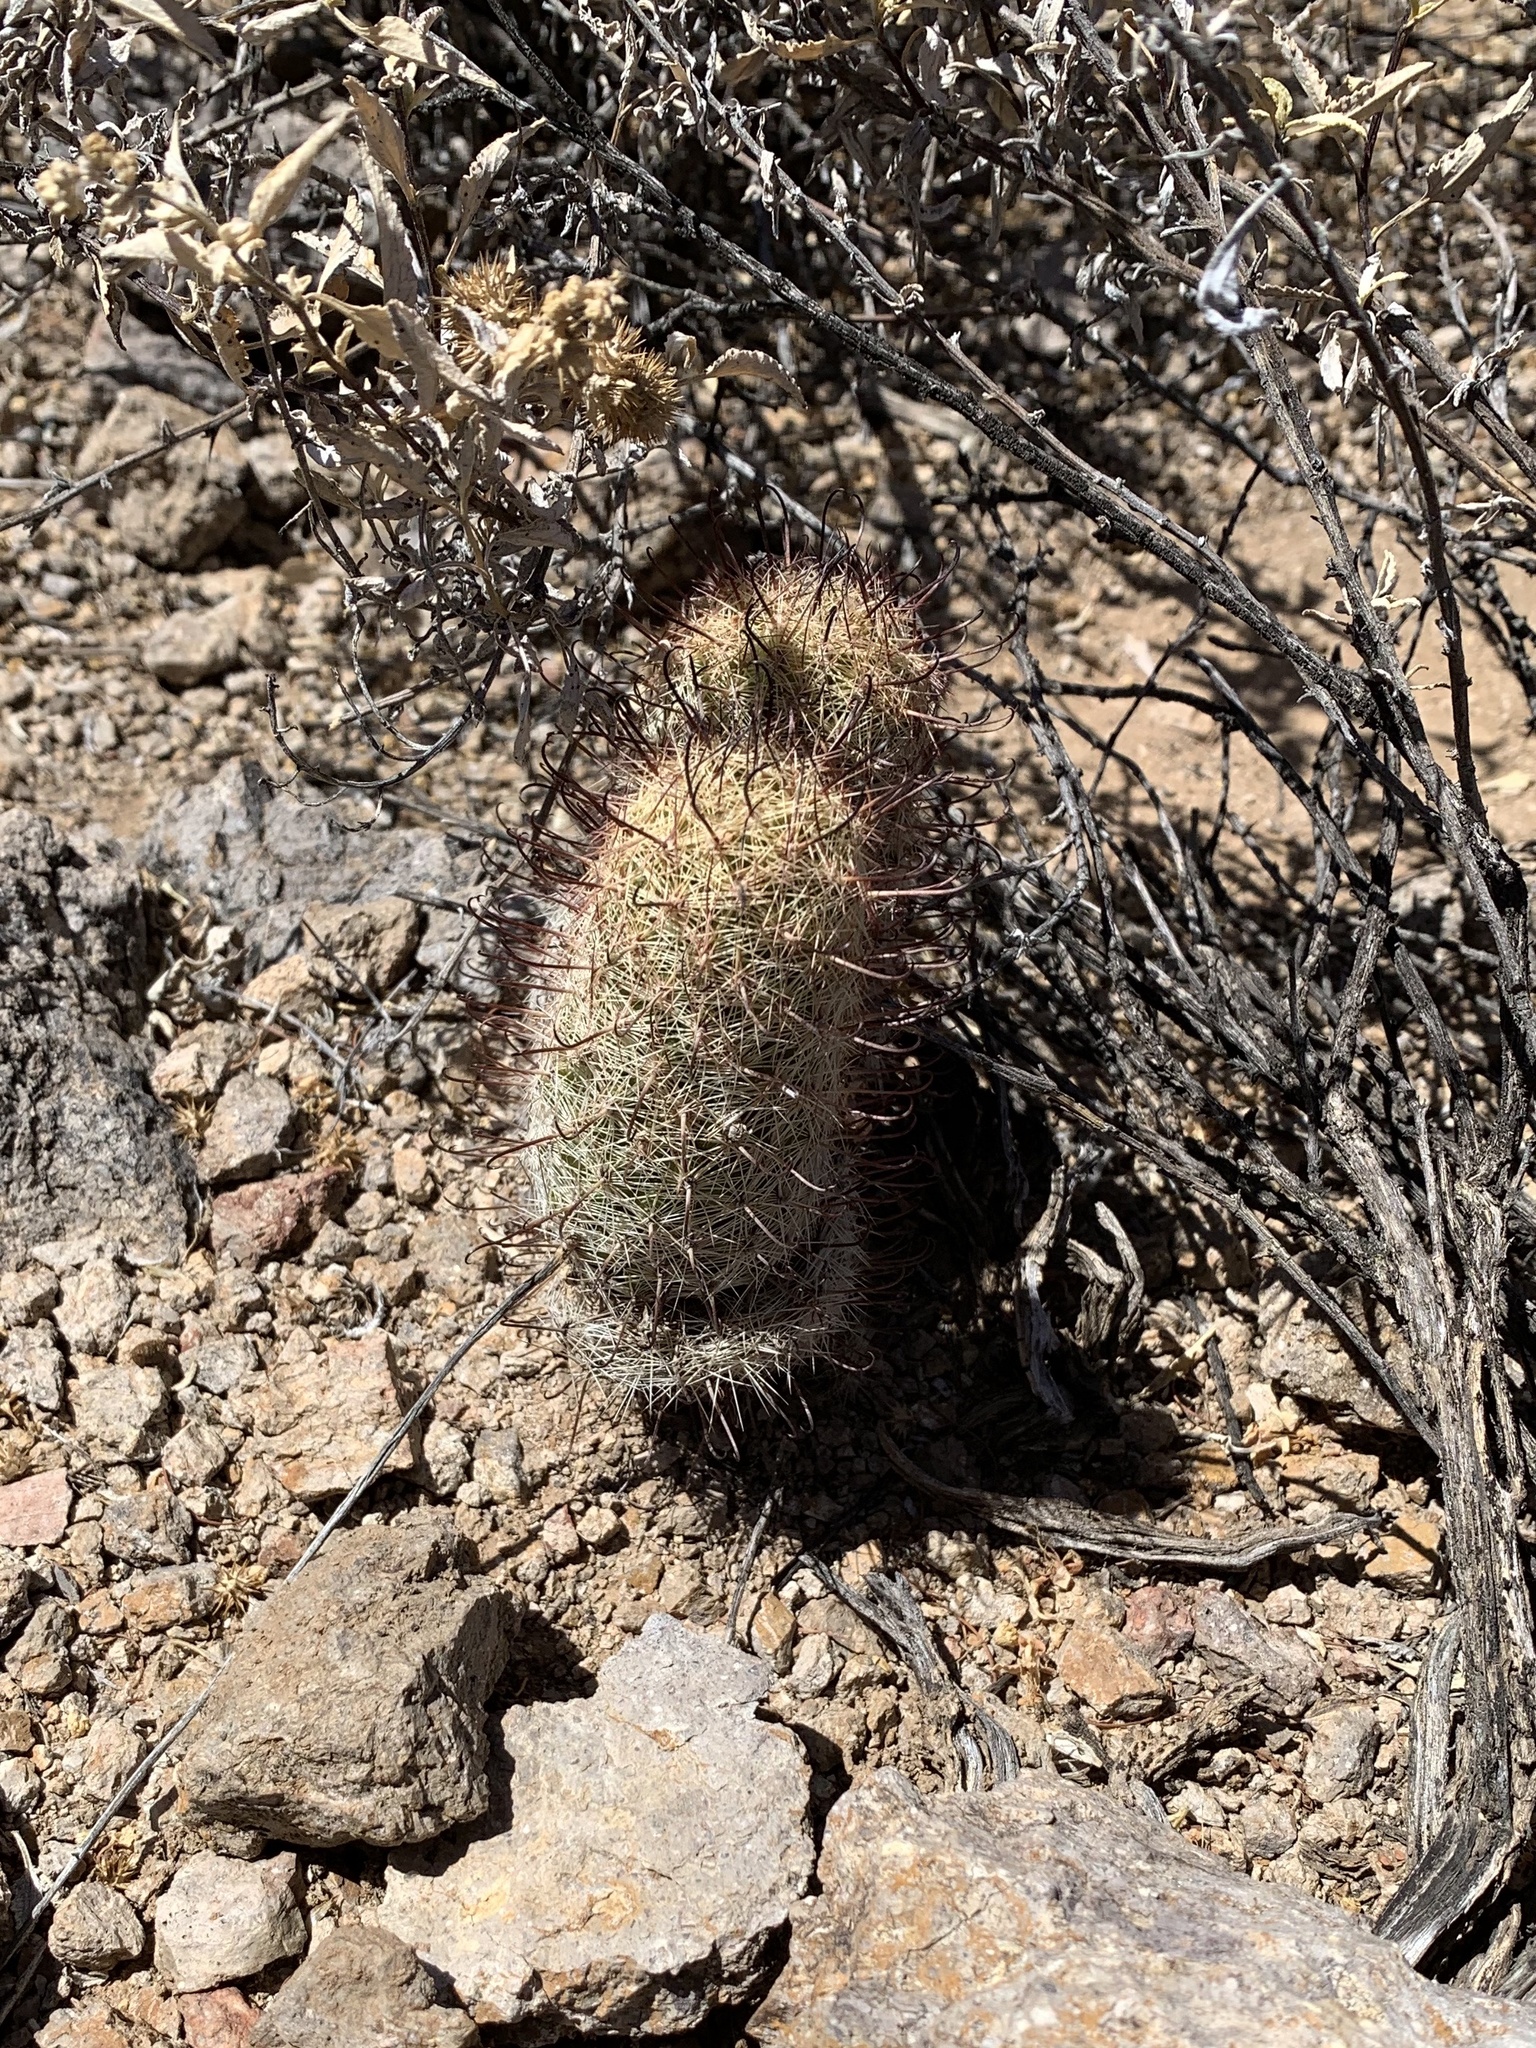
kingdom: Plantae
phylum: Tracheophyta
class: Magnoliopsida
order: Caryophyllales
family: Cactaceae
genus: Cochemiea
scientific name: Cochemiea grahamii
